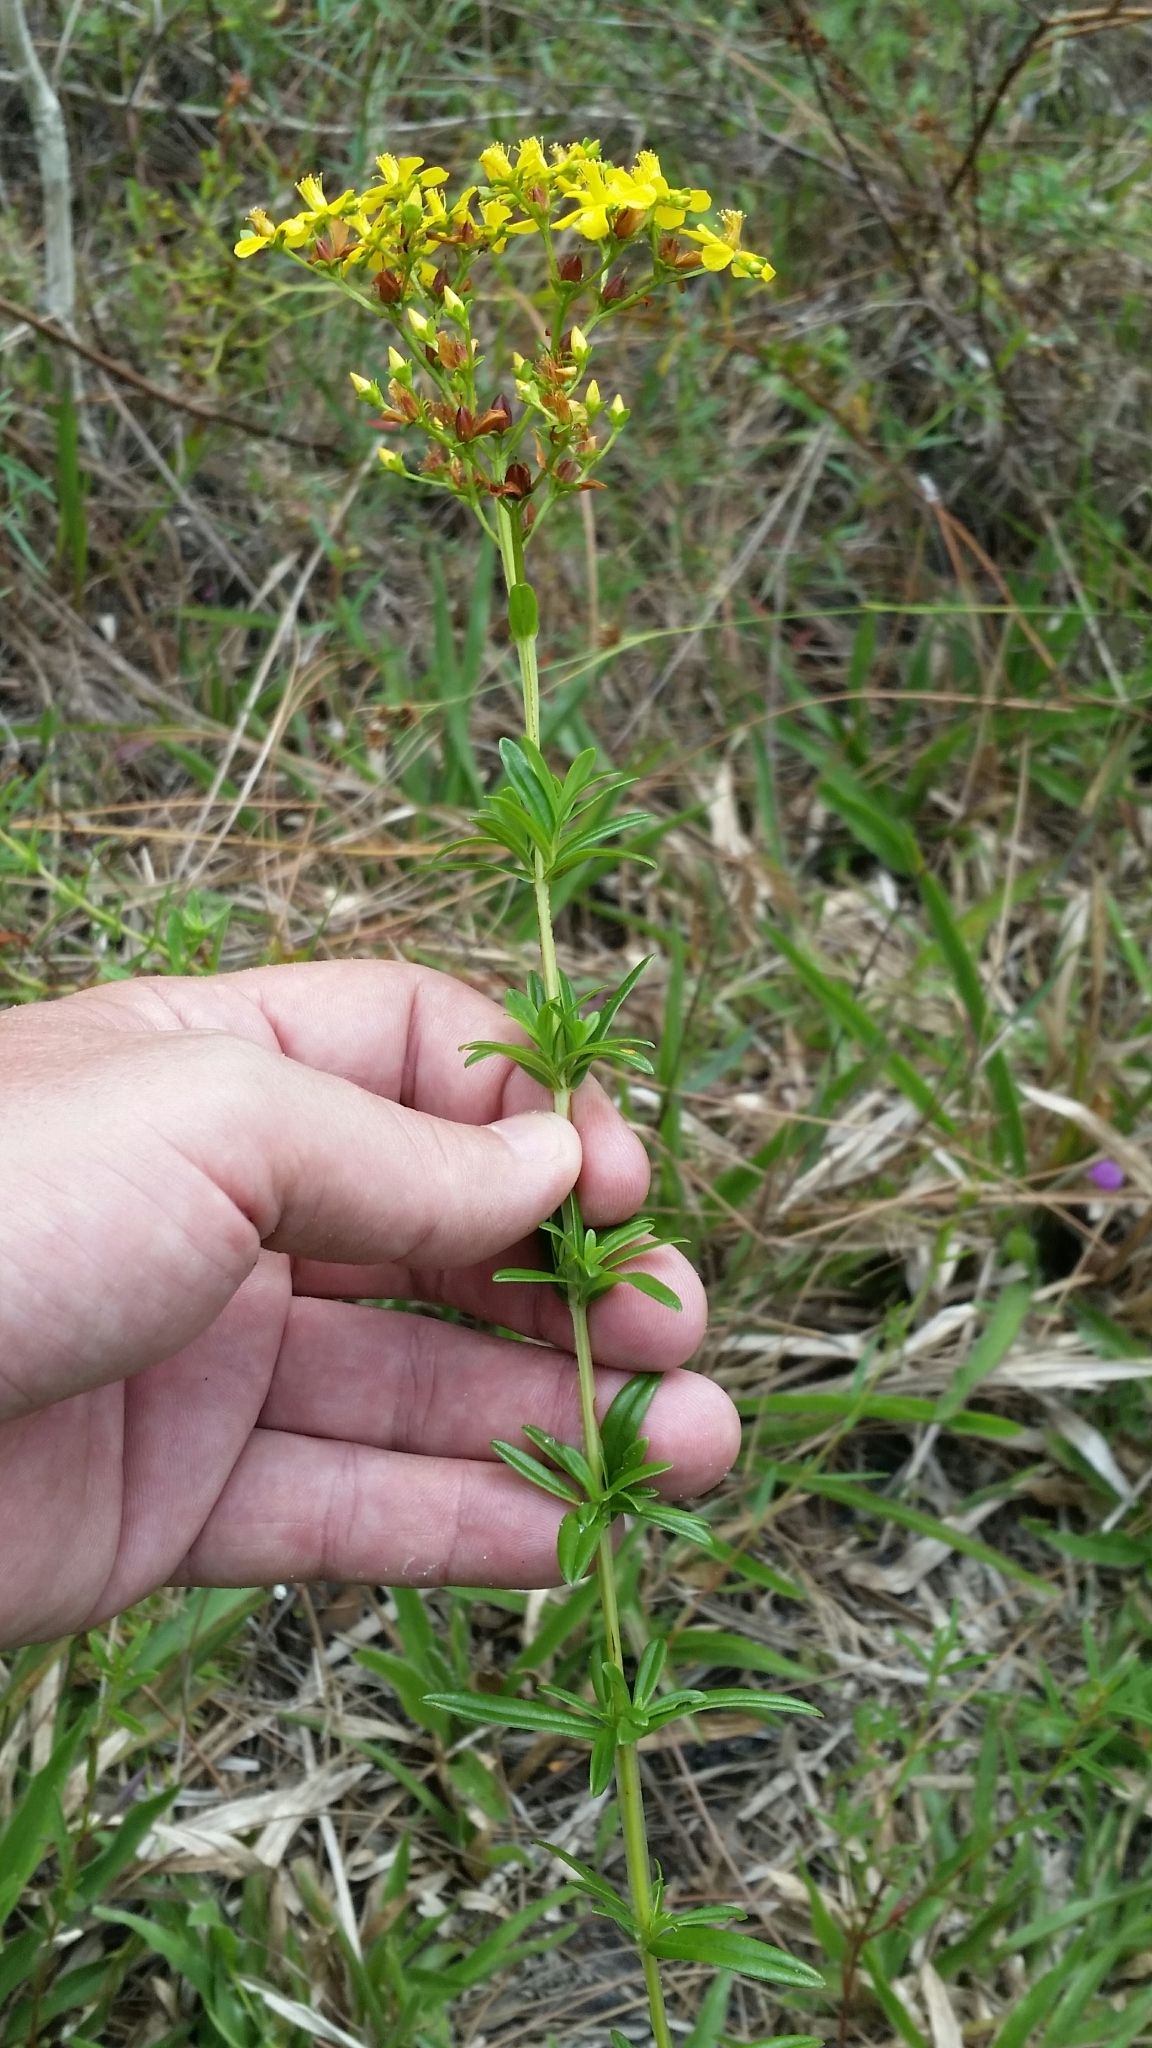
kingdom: Plantae
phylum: Tracheophyta
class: Magnoliopsida
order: Malpighiales
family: Hypericaceae
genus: Hypericum
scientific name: Hypericum cistifolium
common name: Round-pod st. john's-wort
